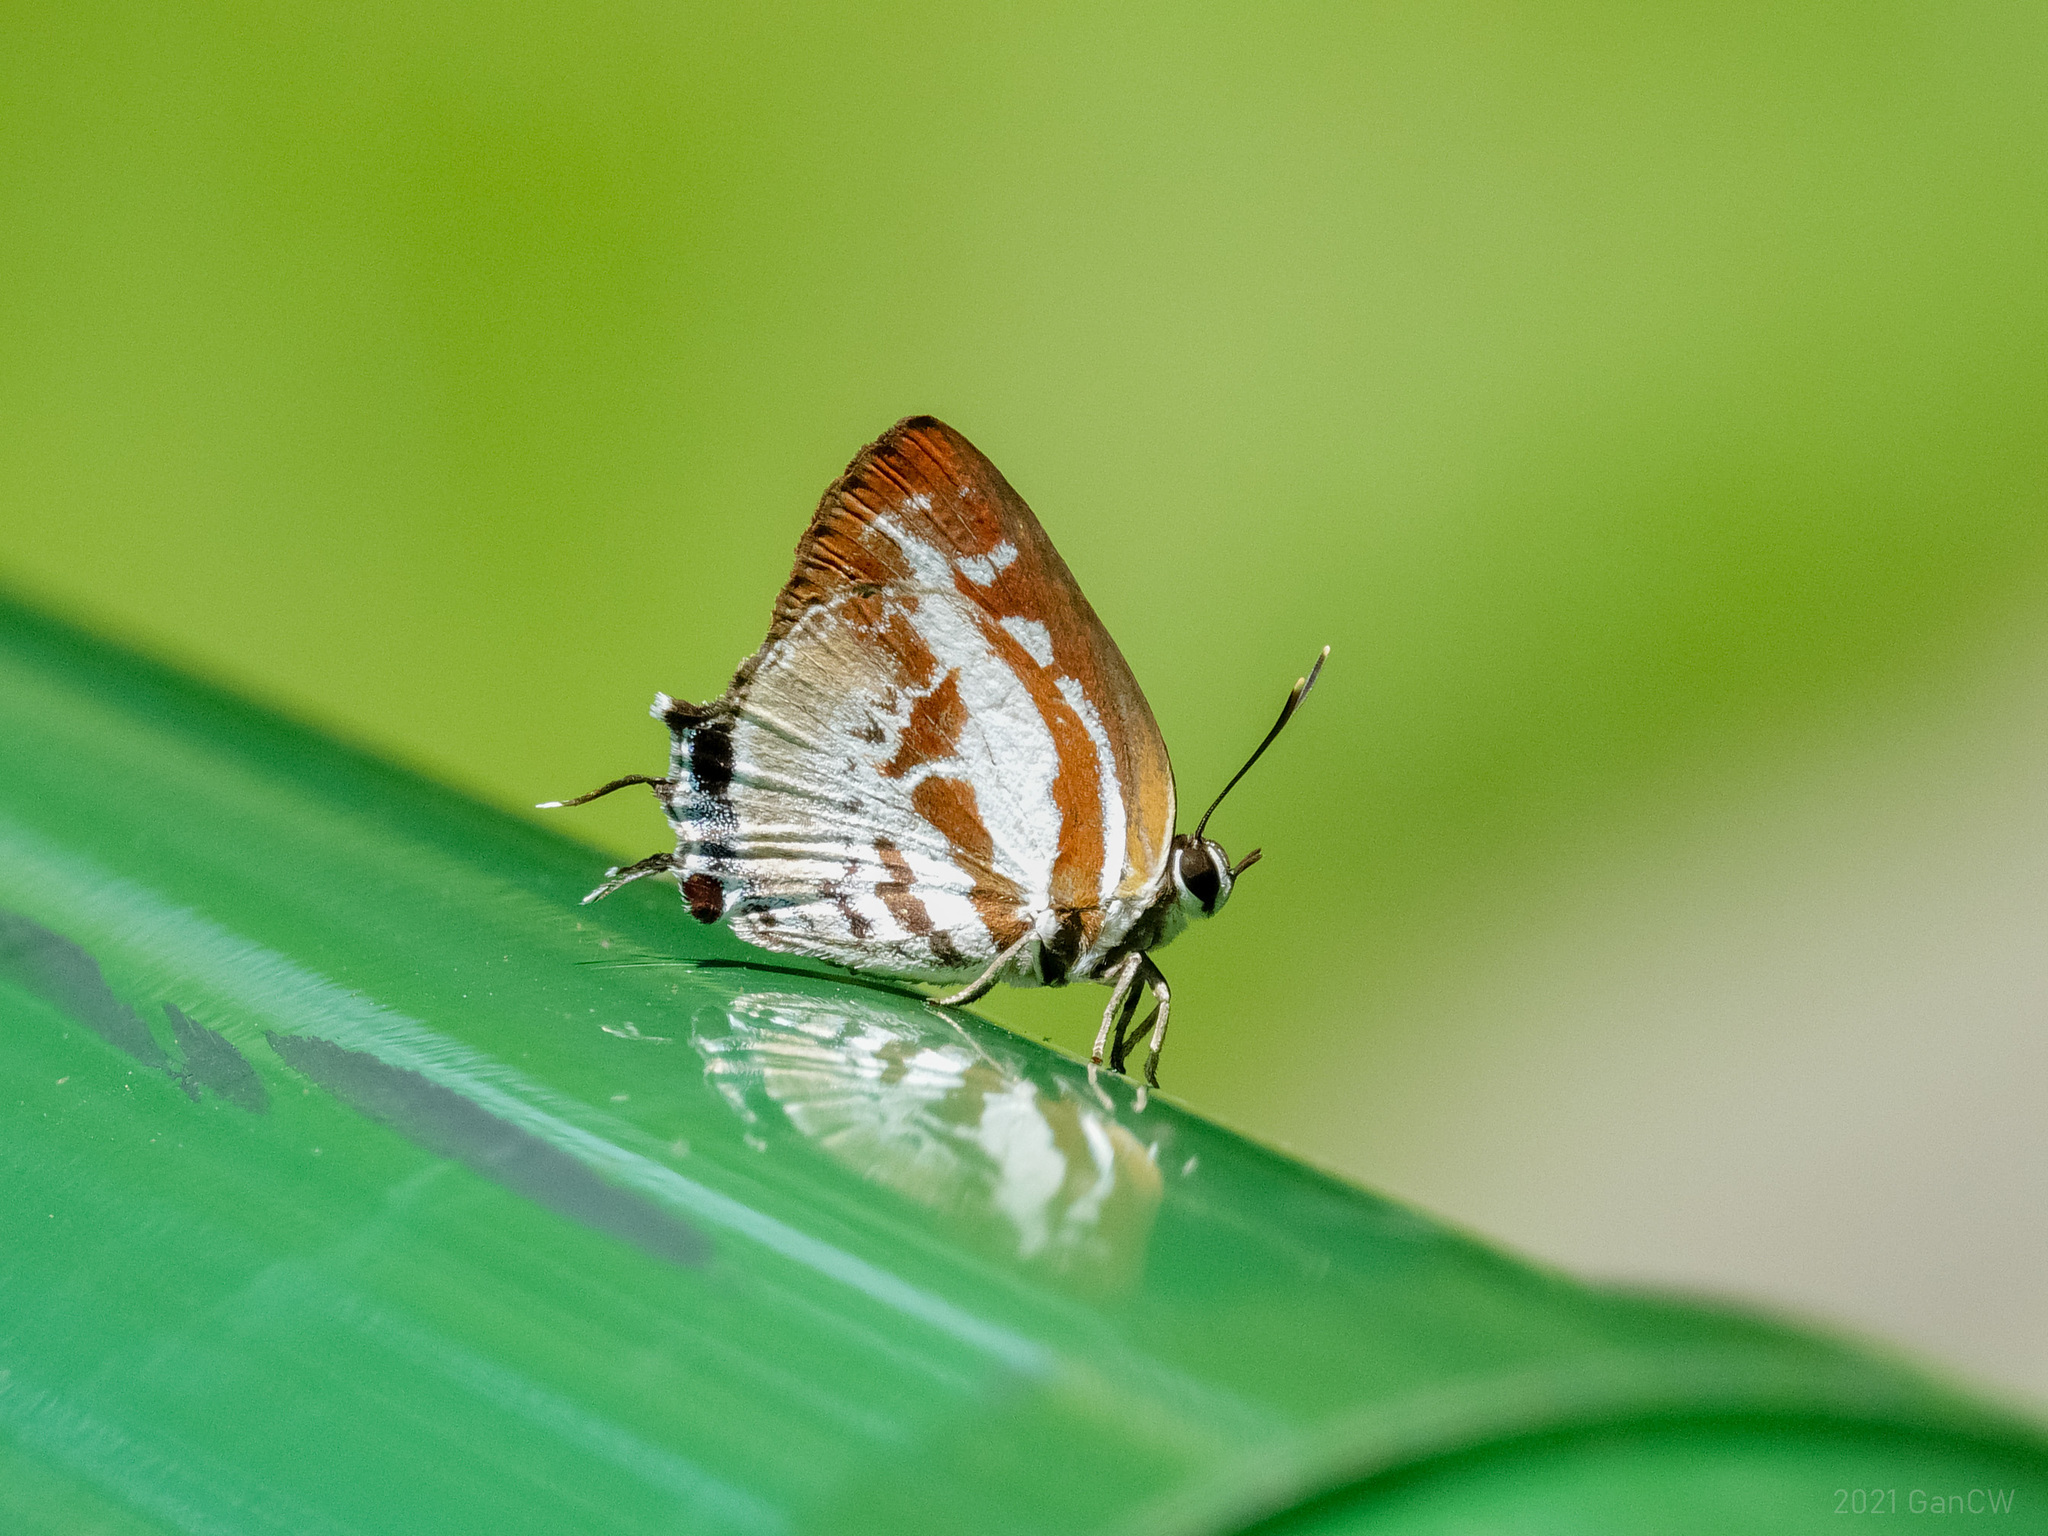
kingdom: Animalia
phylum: Arthropoda
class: Insecta
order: Lepidoptera
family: Lycaenidae
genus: Iraota
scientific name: Iraota rochana
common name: Scarce silverstreak blue
